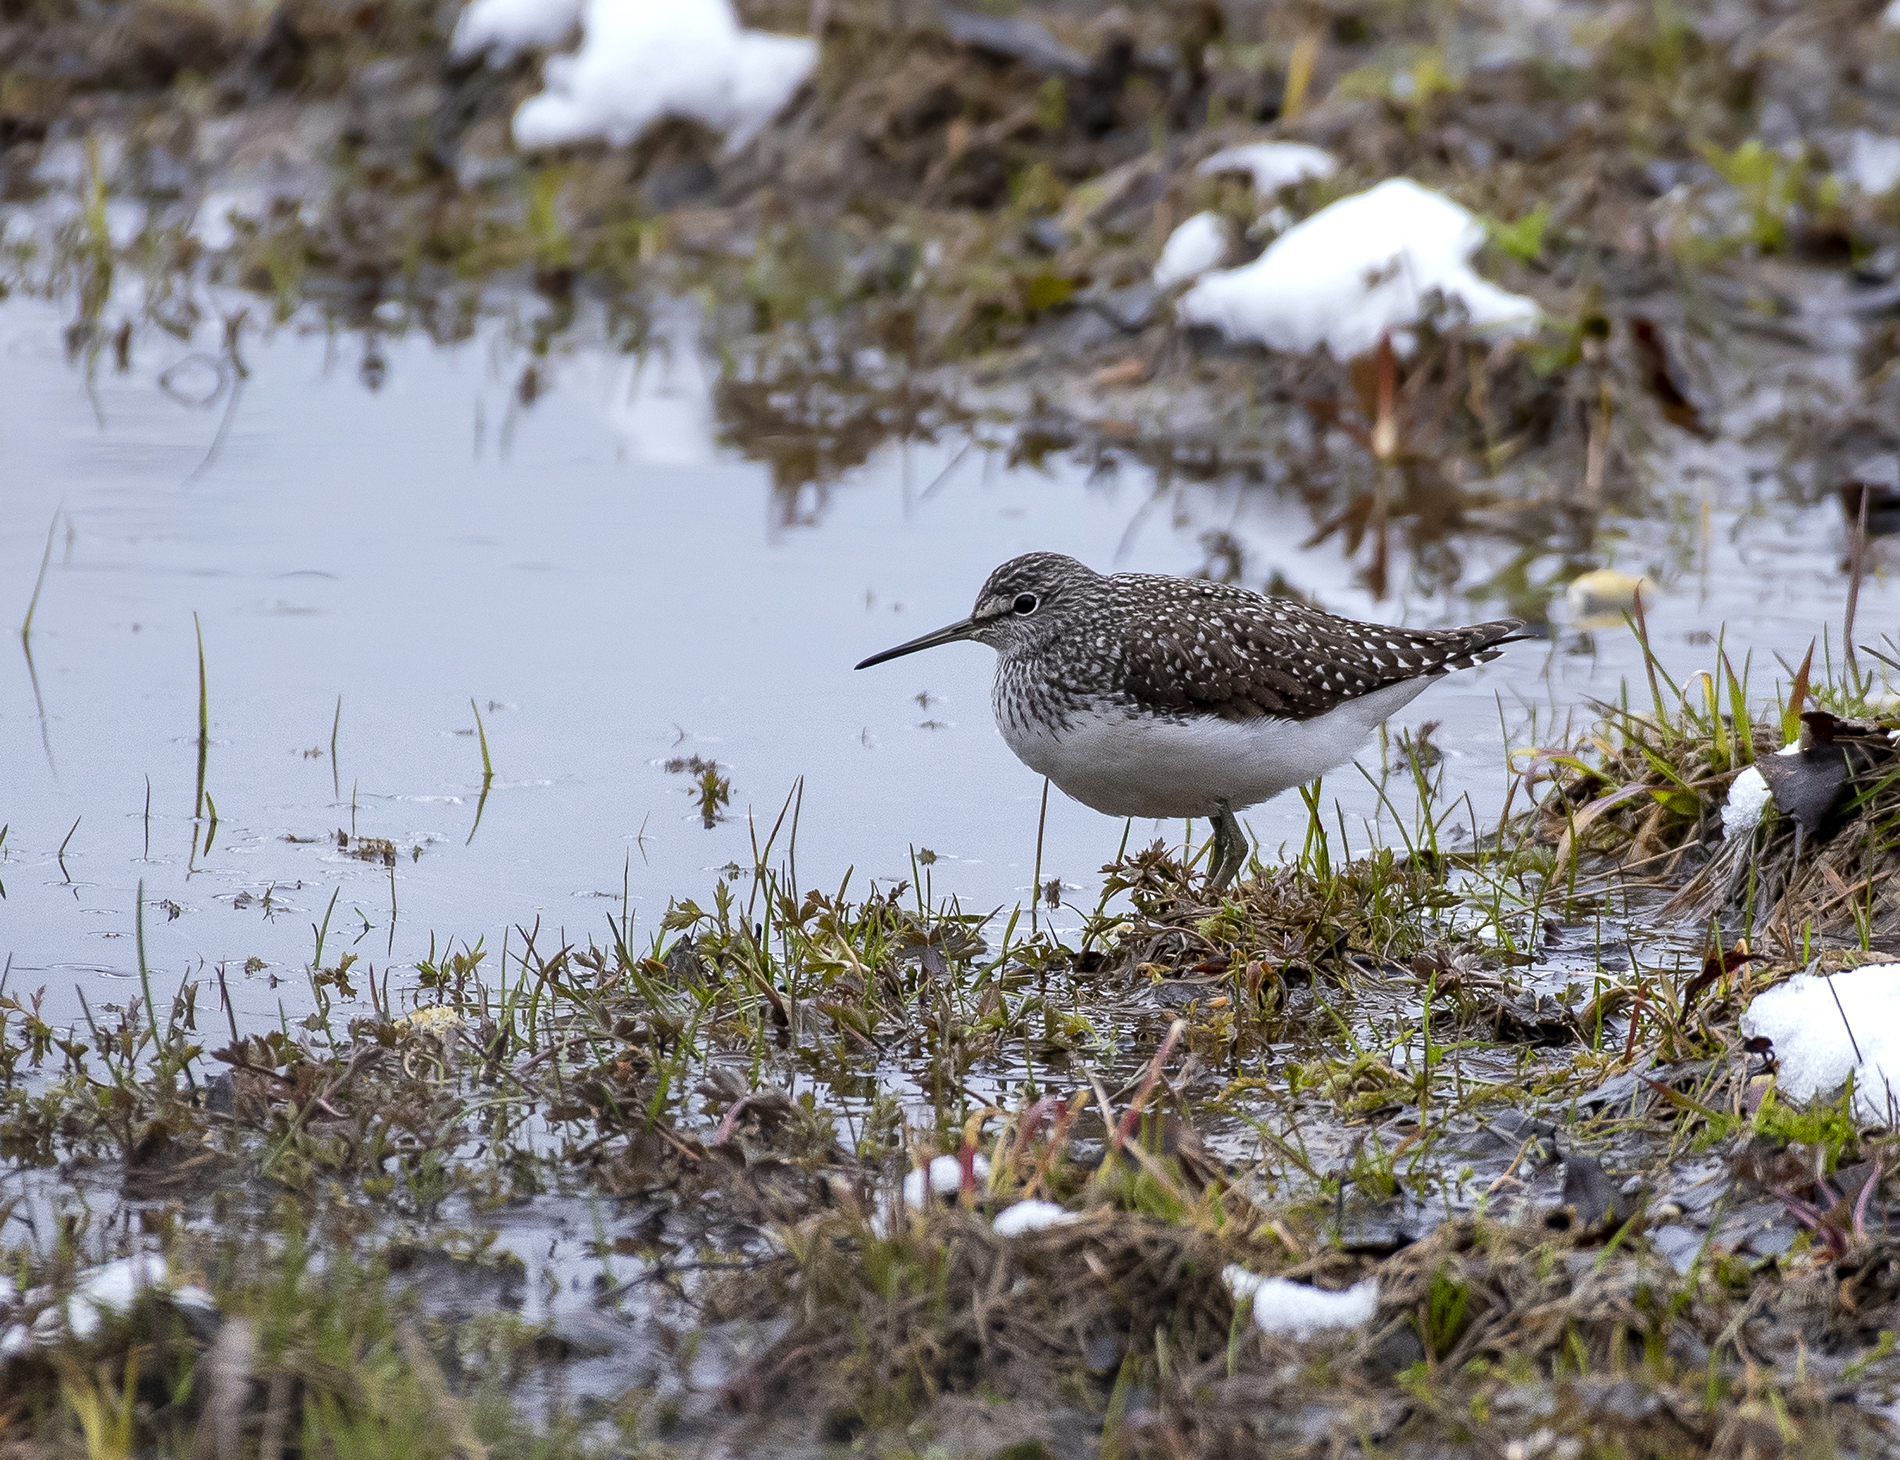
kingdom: Animalia
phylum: Chordata
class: Aves
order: Charadriiformes
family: Scolopacidae
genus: Tringa
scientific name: Tringa ochropus
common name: Green sandpiper
